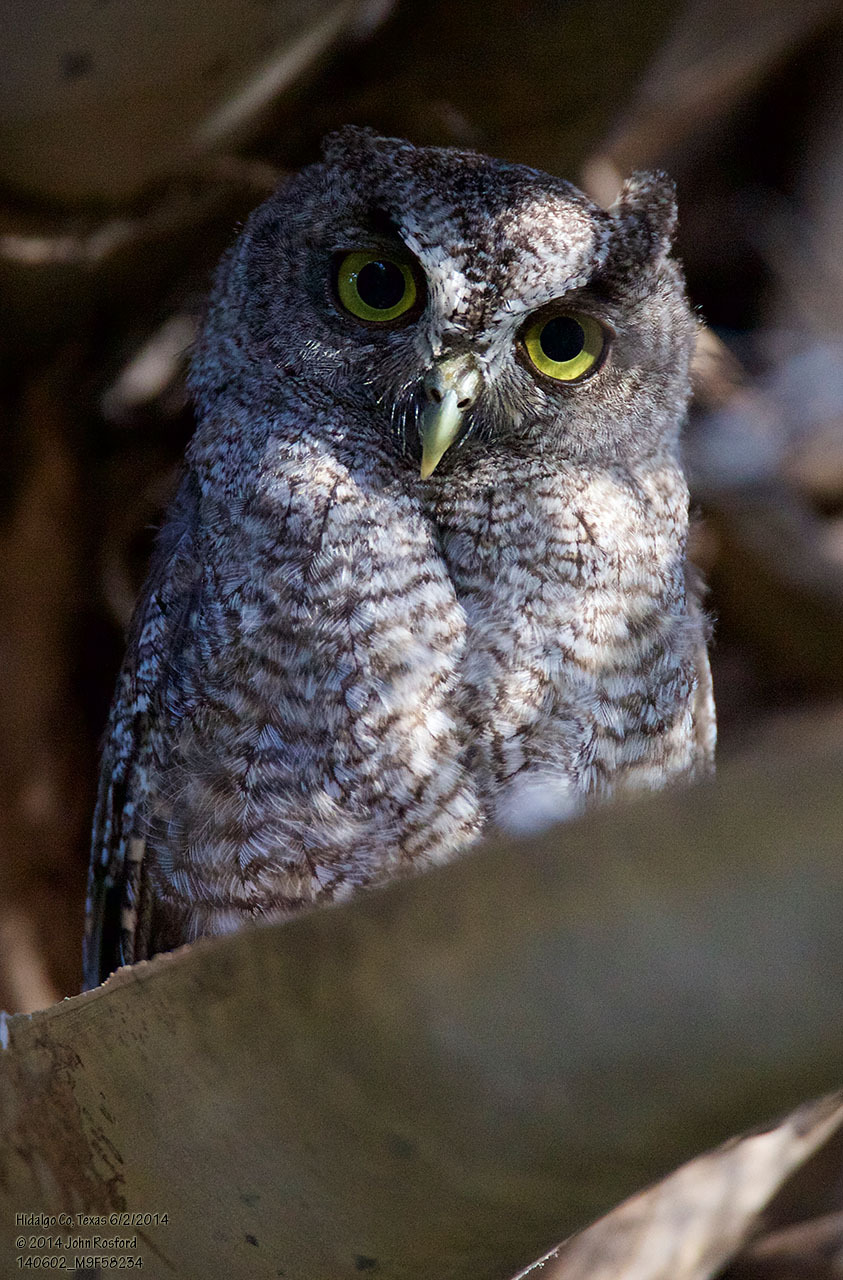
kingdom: Animalia
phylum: Chordata
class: Aves
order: Strigiformes
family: Strigidae
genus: Megascops
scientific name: Megascops asio
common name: Eastern screech-owl
